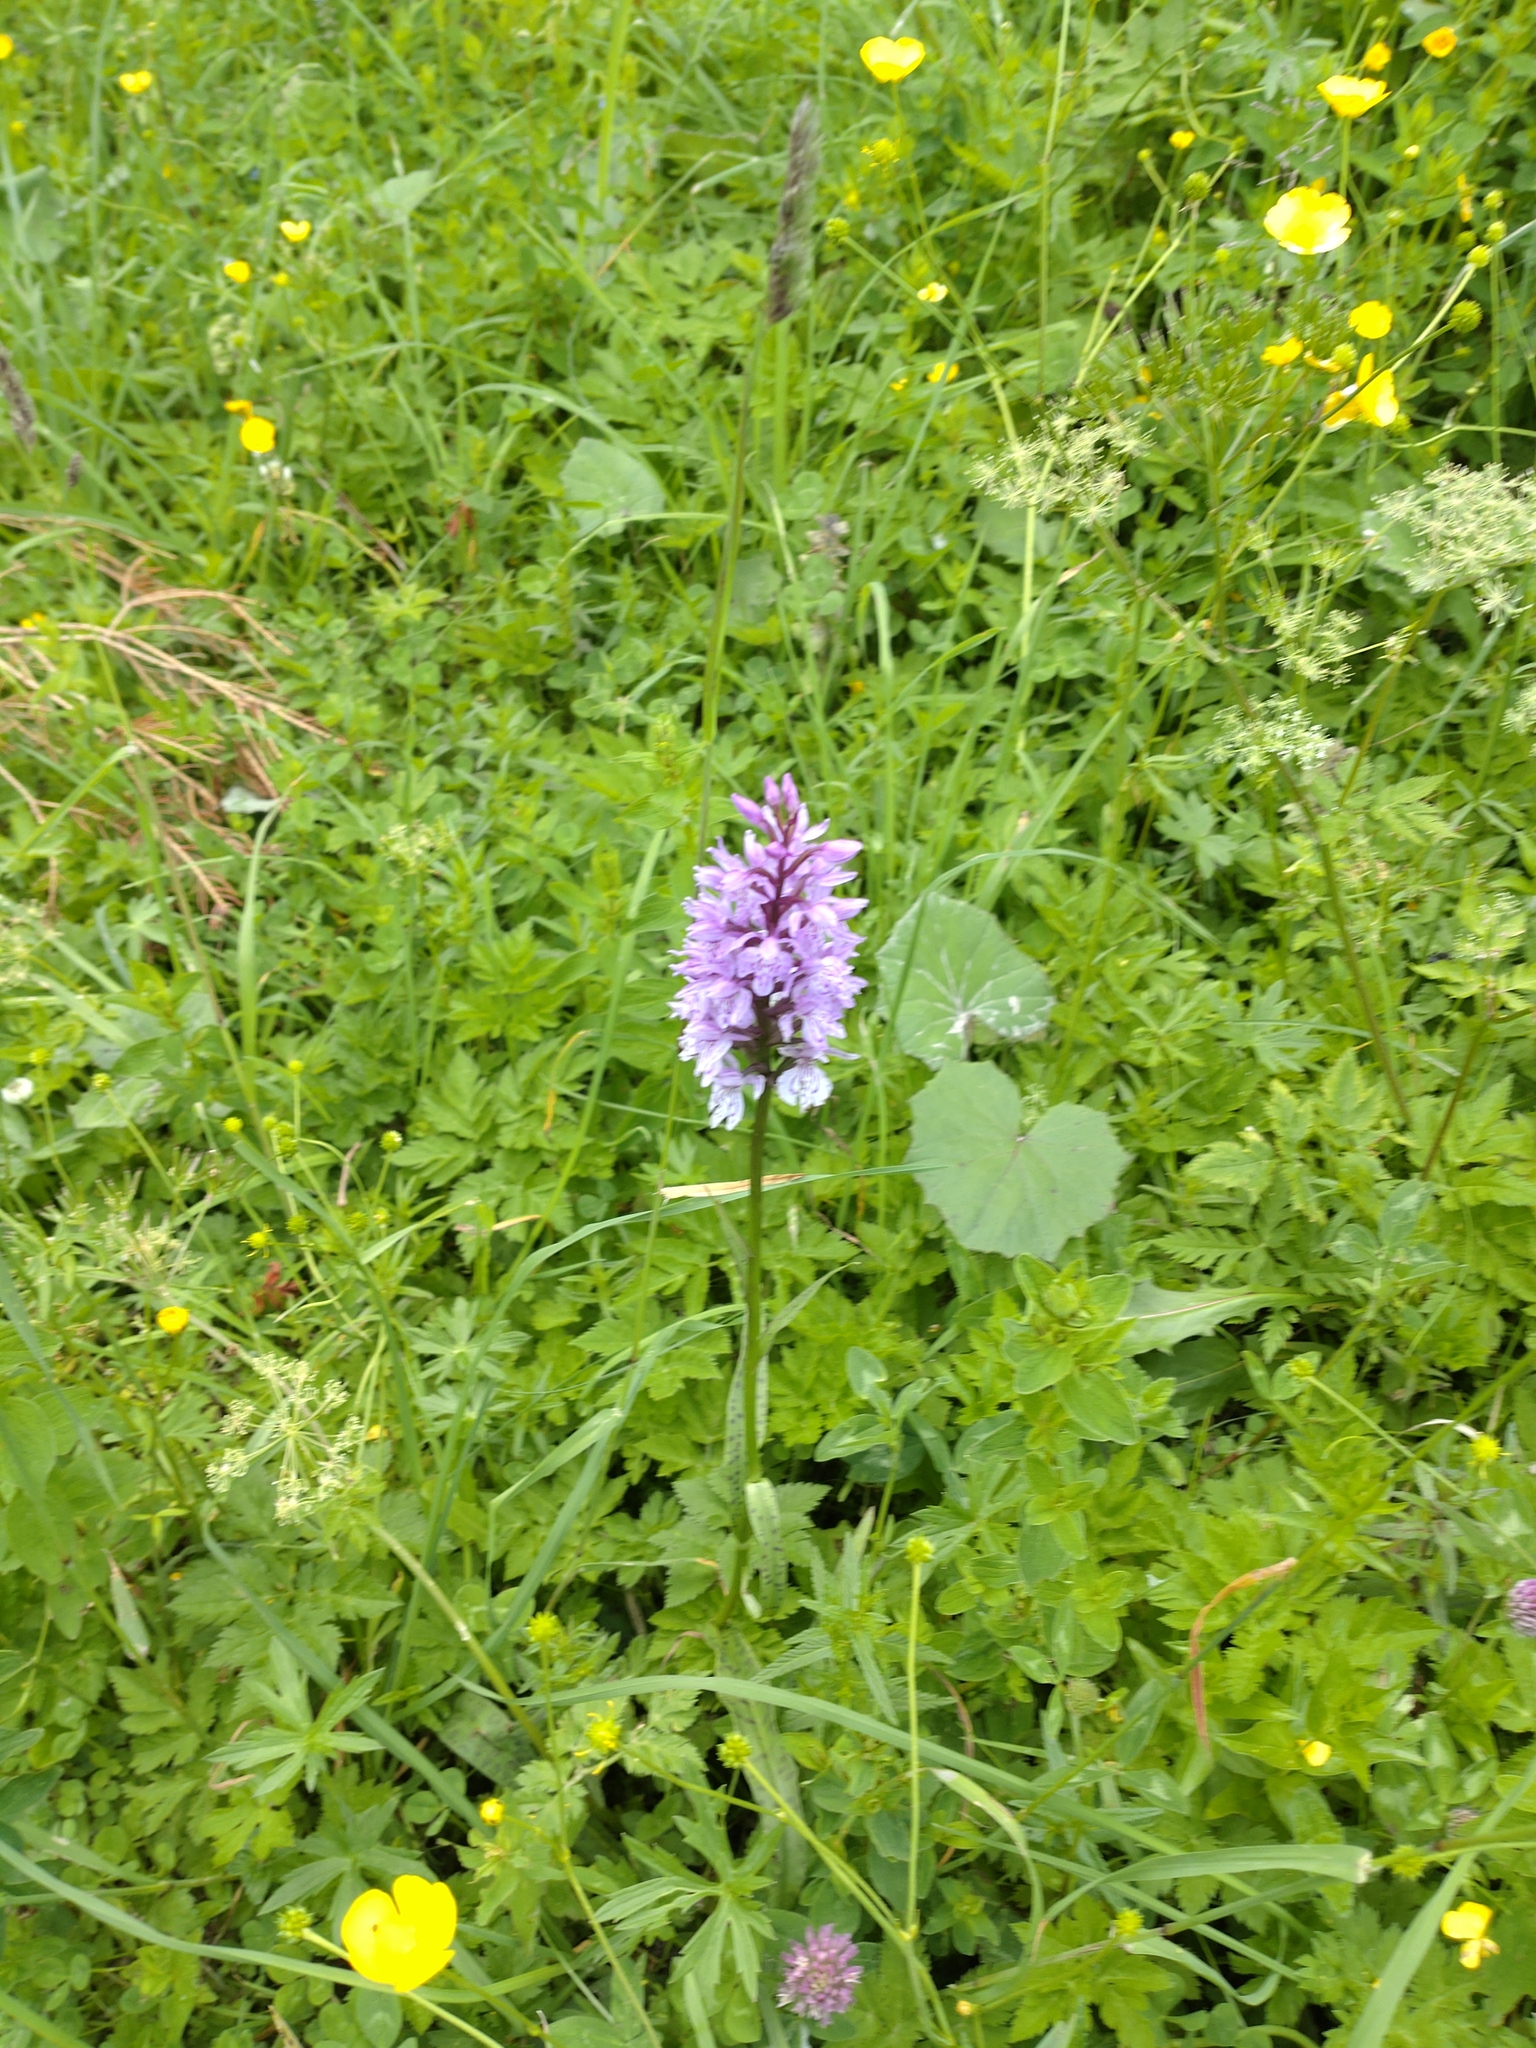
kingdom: Plantae
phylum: Tracheophyta
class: Liliopsida
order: Asparagales
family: Orchidaceae
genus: Dactylorhiza
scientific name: Dactylorhiza maculata
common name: Heath spotted-orchid
